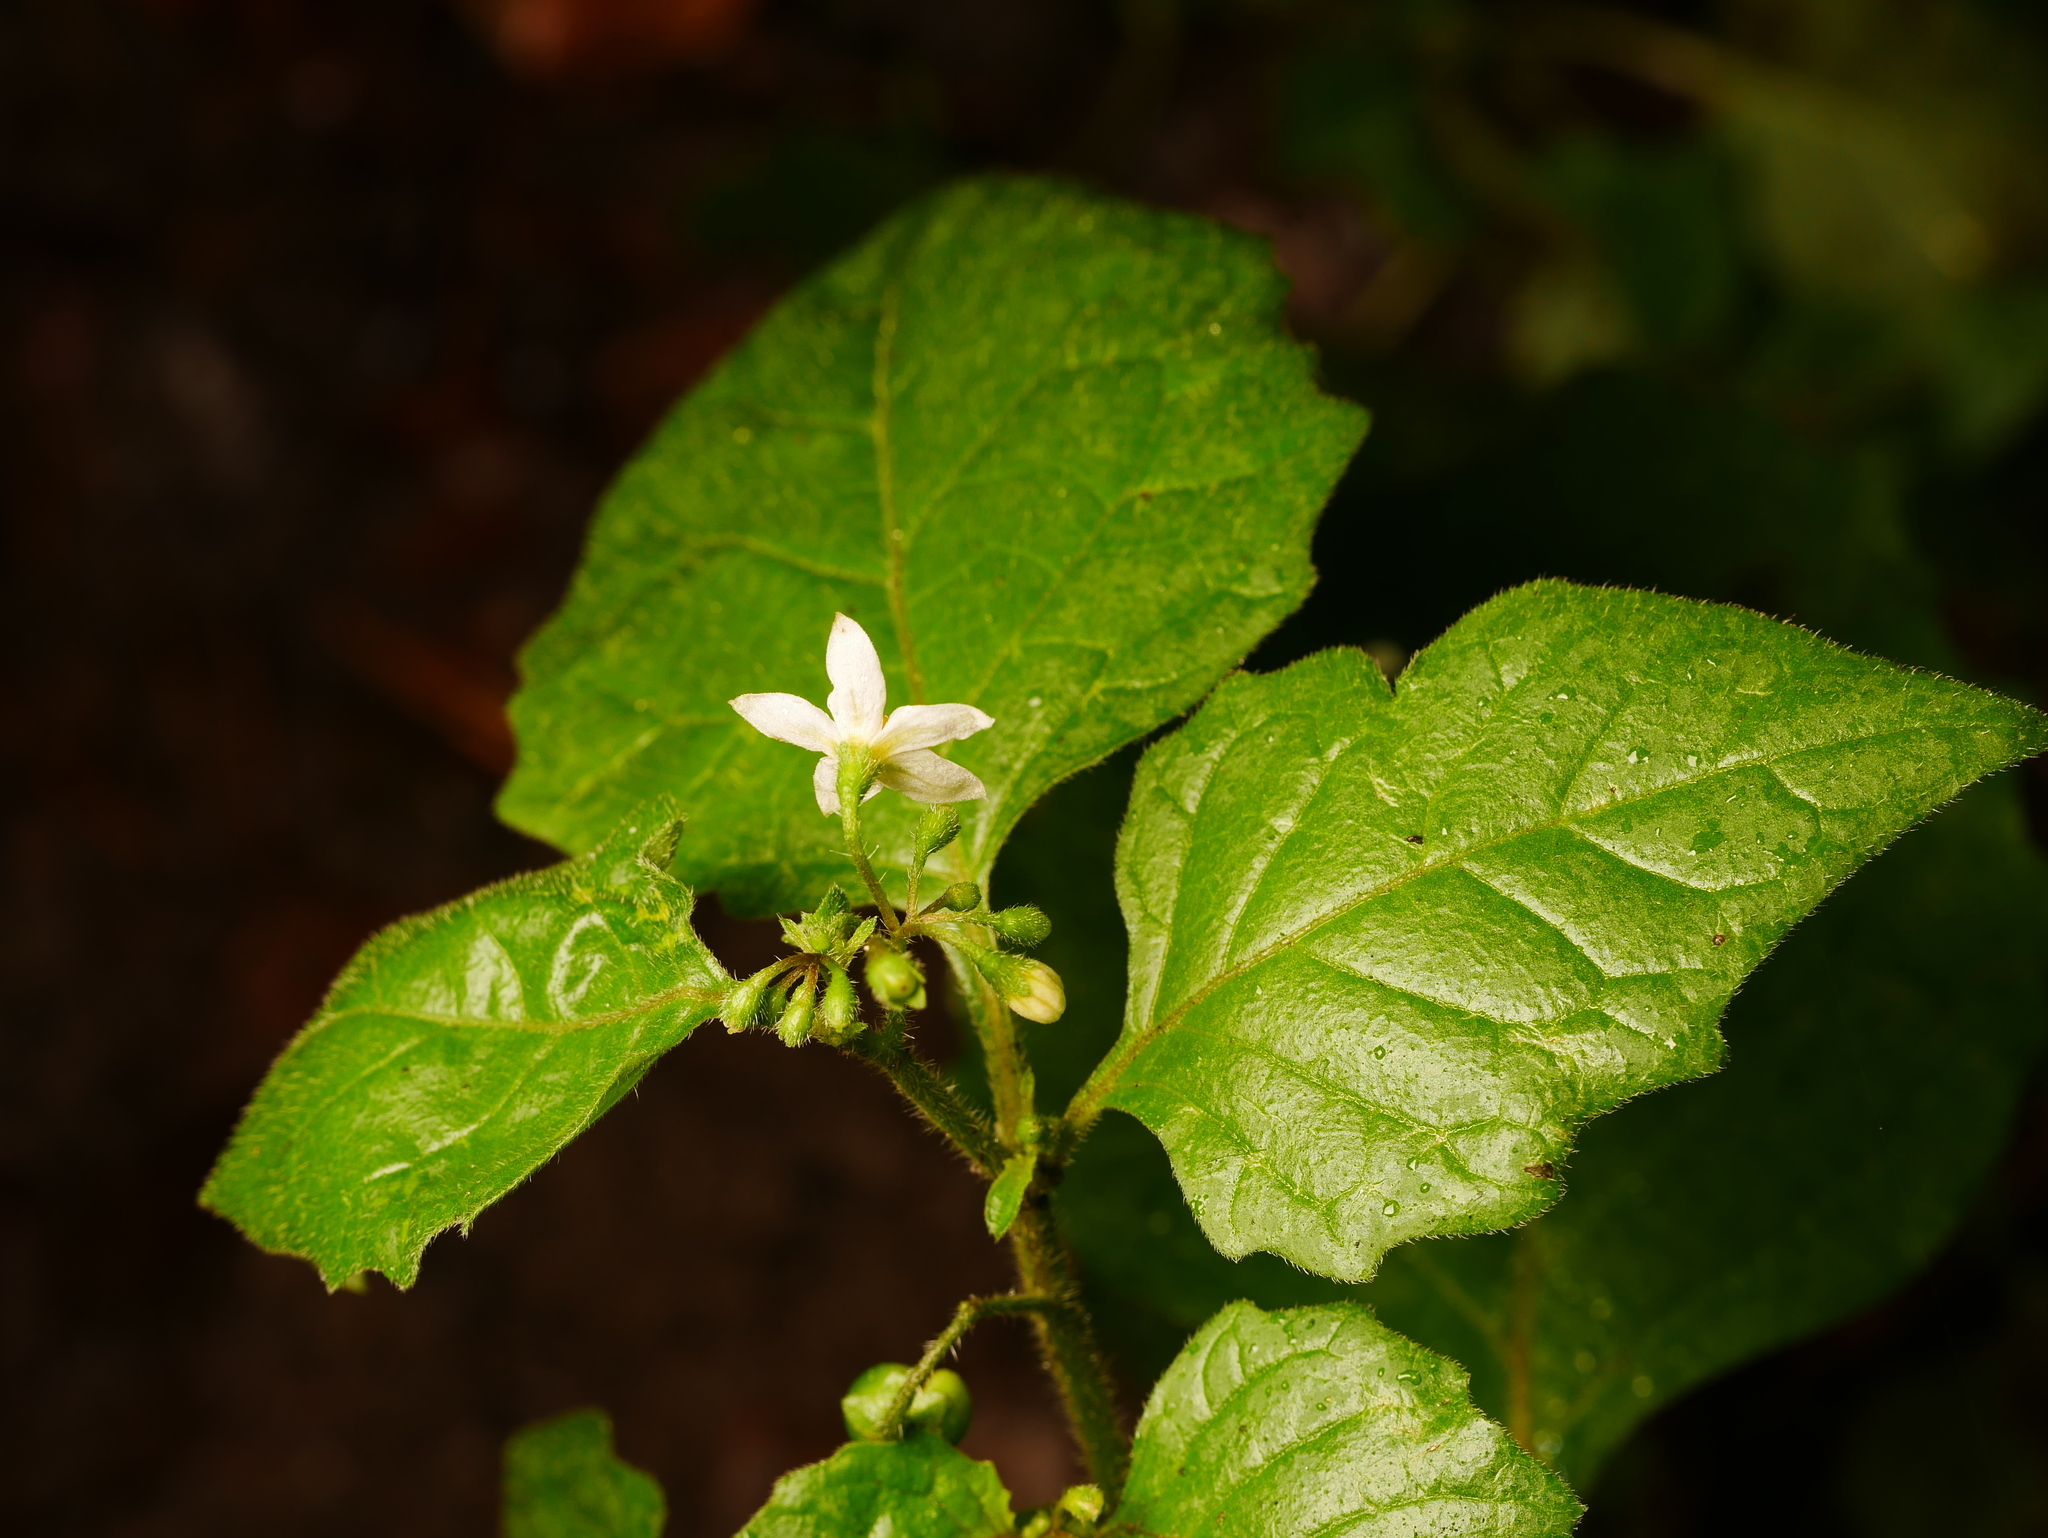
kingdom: Plantae
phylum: Tracheophyta
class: Magnoliopsida
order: Solanales
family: Solanaceae
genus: Solanum
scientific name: Solanum nigrum
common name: Black nightshade
